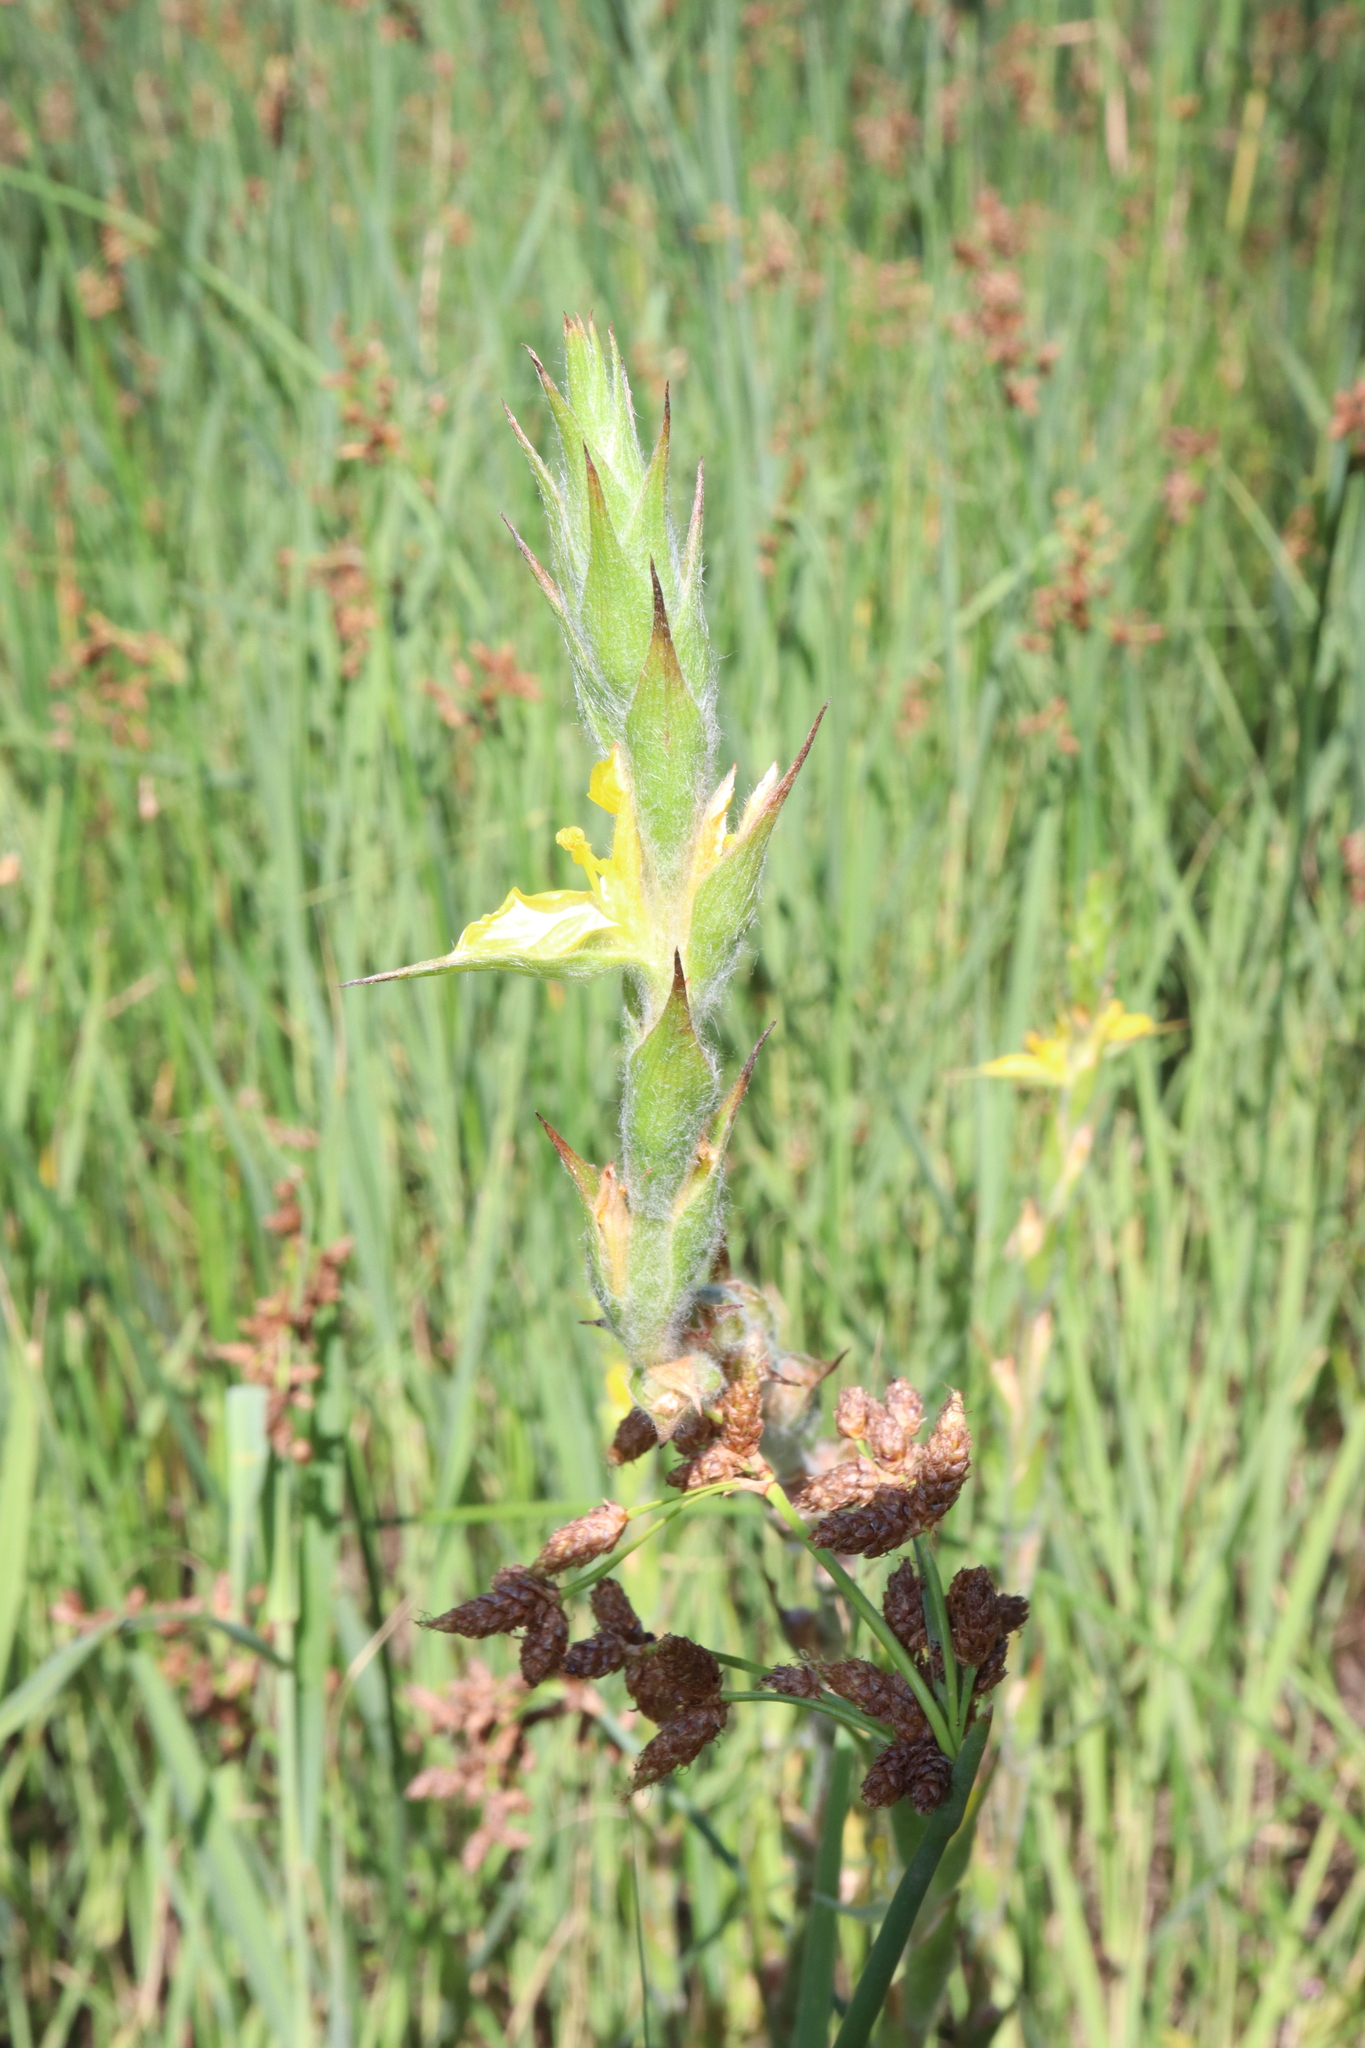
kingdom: Plantae
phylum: Tracheophyta
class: Liliopsida
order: Commelinales
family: Philydraceae
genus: Philydrum
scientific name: Philydrum lanuginosum
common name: Woolly frog's mouth
